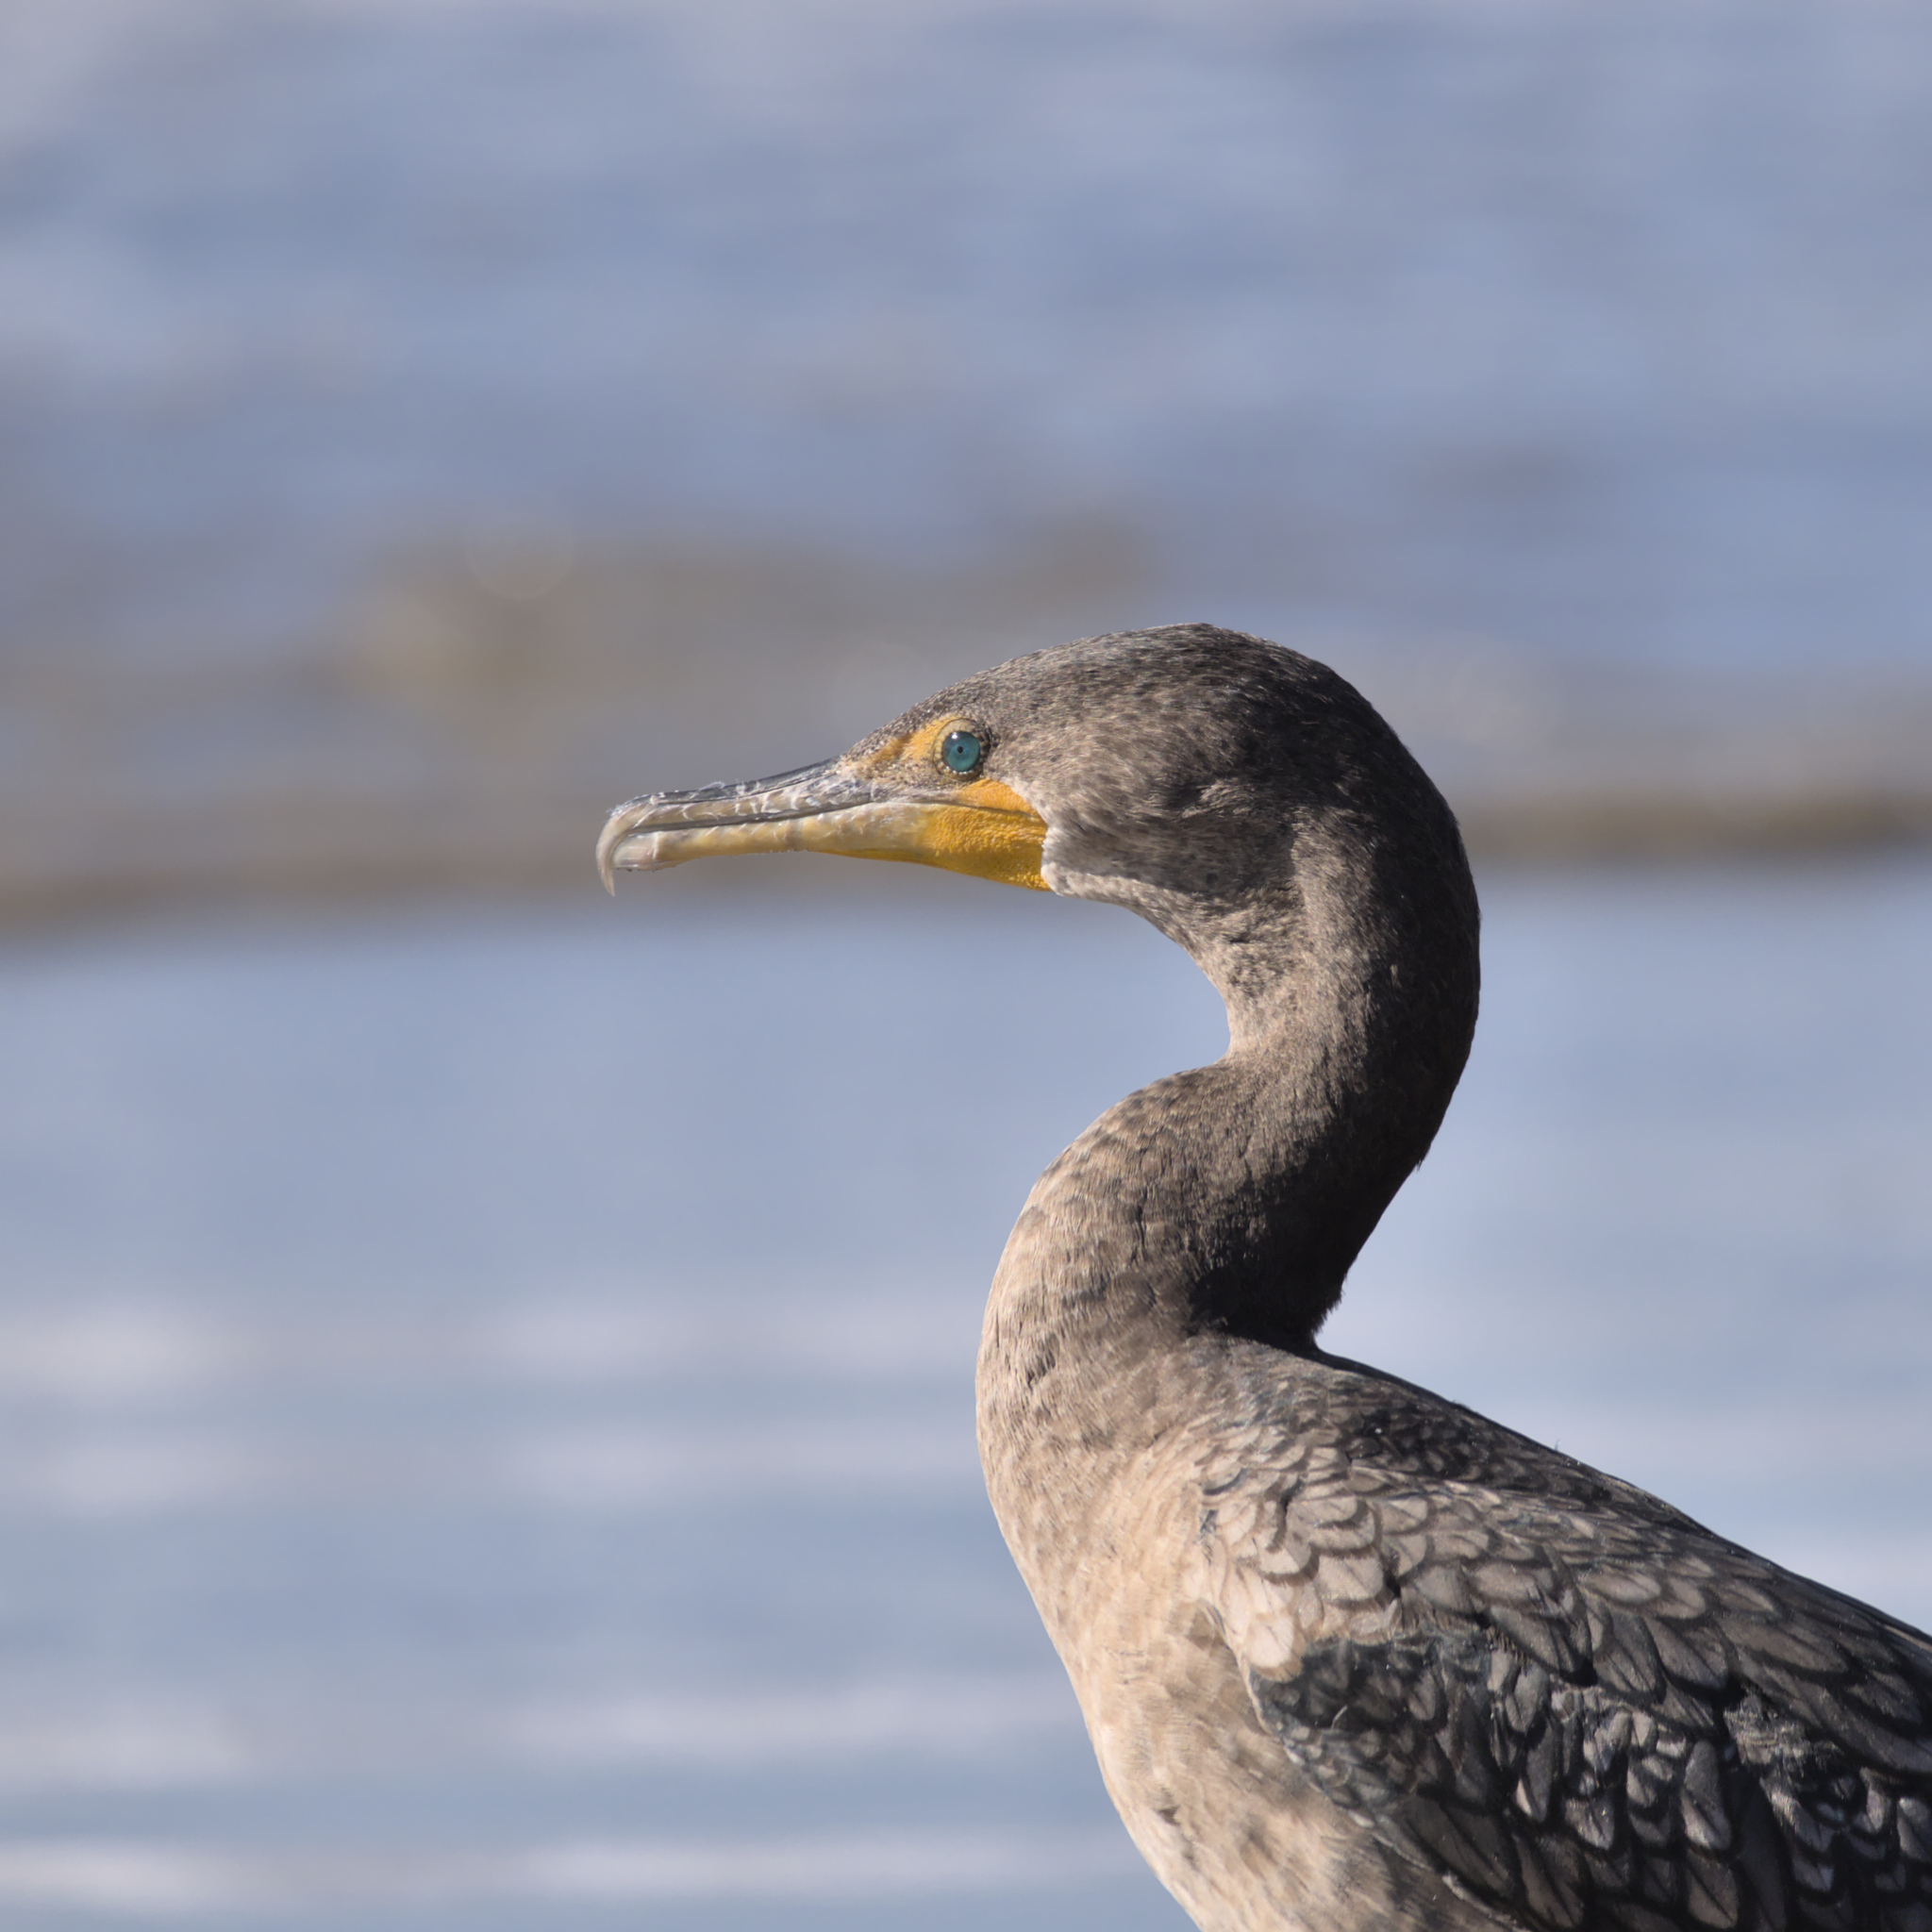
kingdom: Animalia
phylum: Chordata
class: Aves
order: Suliformes
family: Phalacrocoracidae
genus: Phalacrocorax
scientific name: Phalacrocorax auritus
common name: Double-crested cormorant
